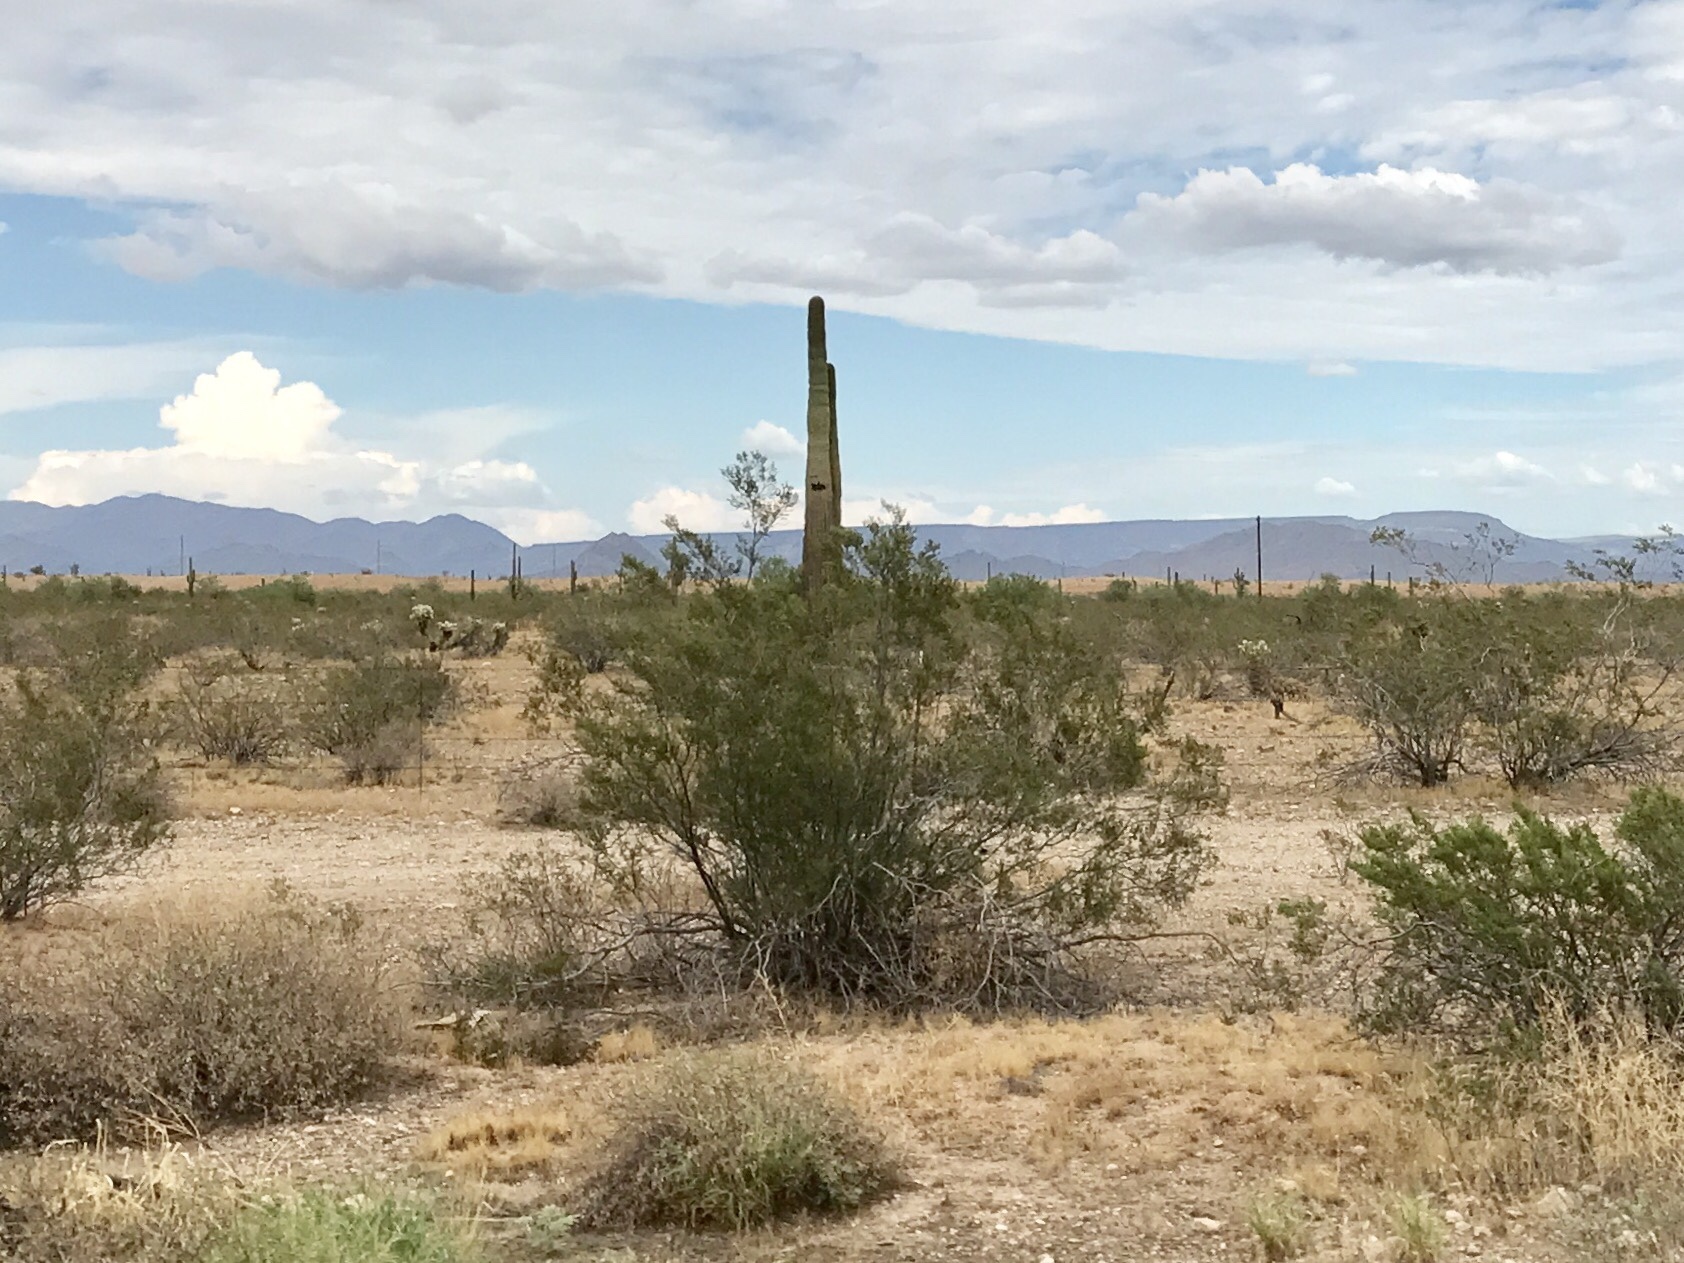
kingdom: Plantae
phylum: Tracheophyta
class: Magnoliopsida
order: Zygophyllales
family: Zygophyllaceae
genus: Larrea
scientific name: Larrea tridentata
